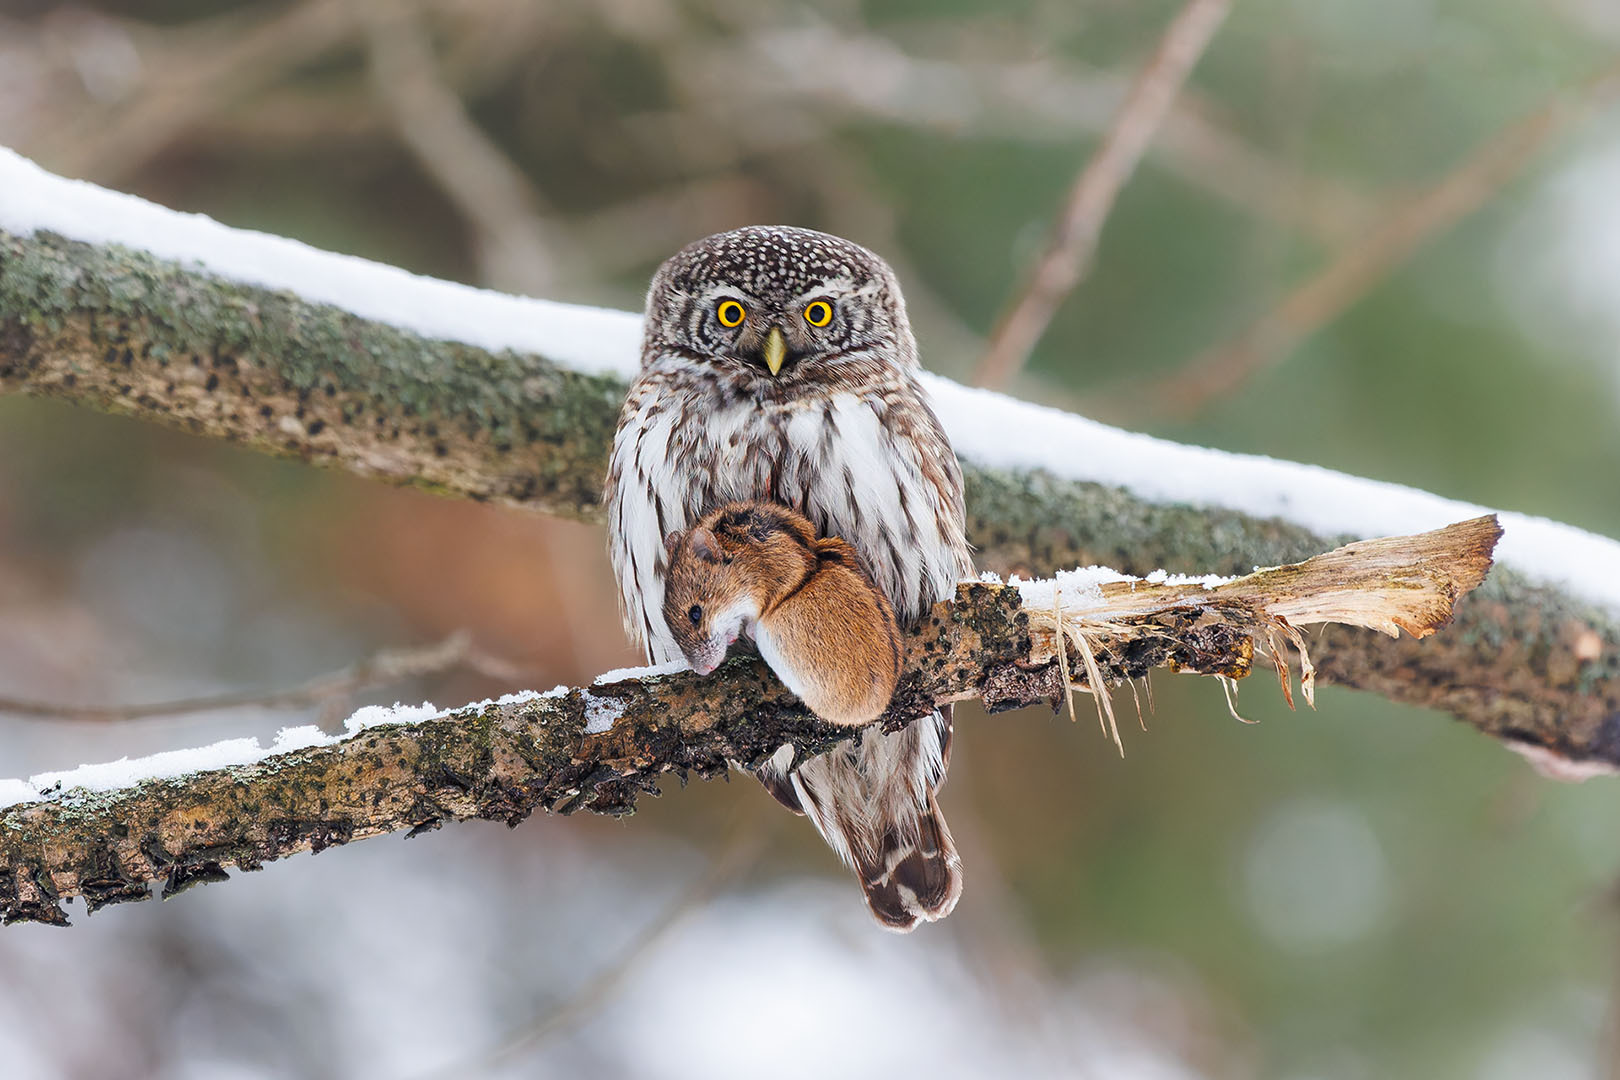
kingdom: Animalia
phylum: Chordata
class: Aves
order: Strigiformes
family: Strigidae
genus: Glaucidium
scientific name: Glaucidium passerinum
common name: Eurasian pygmy owl
